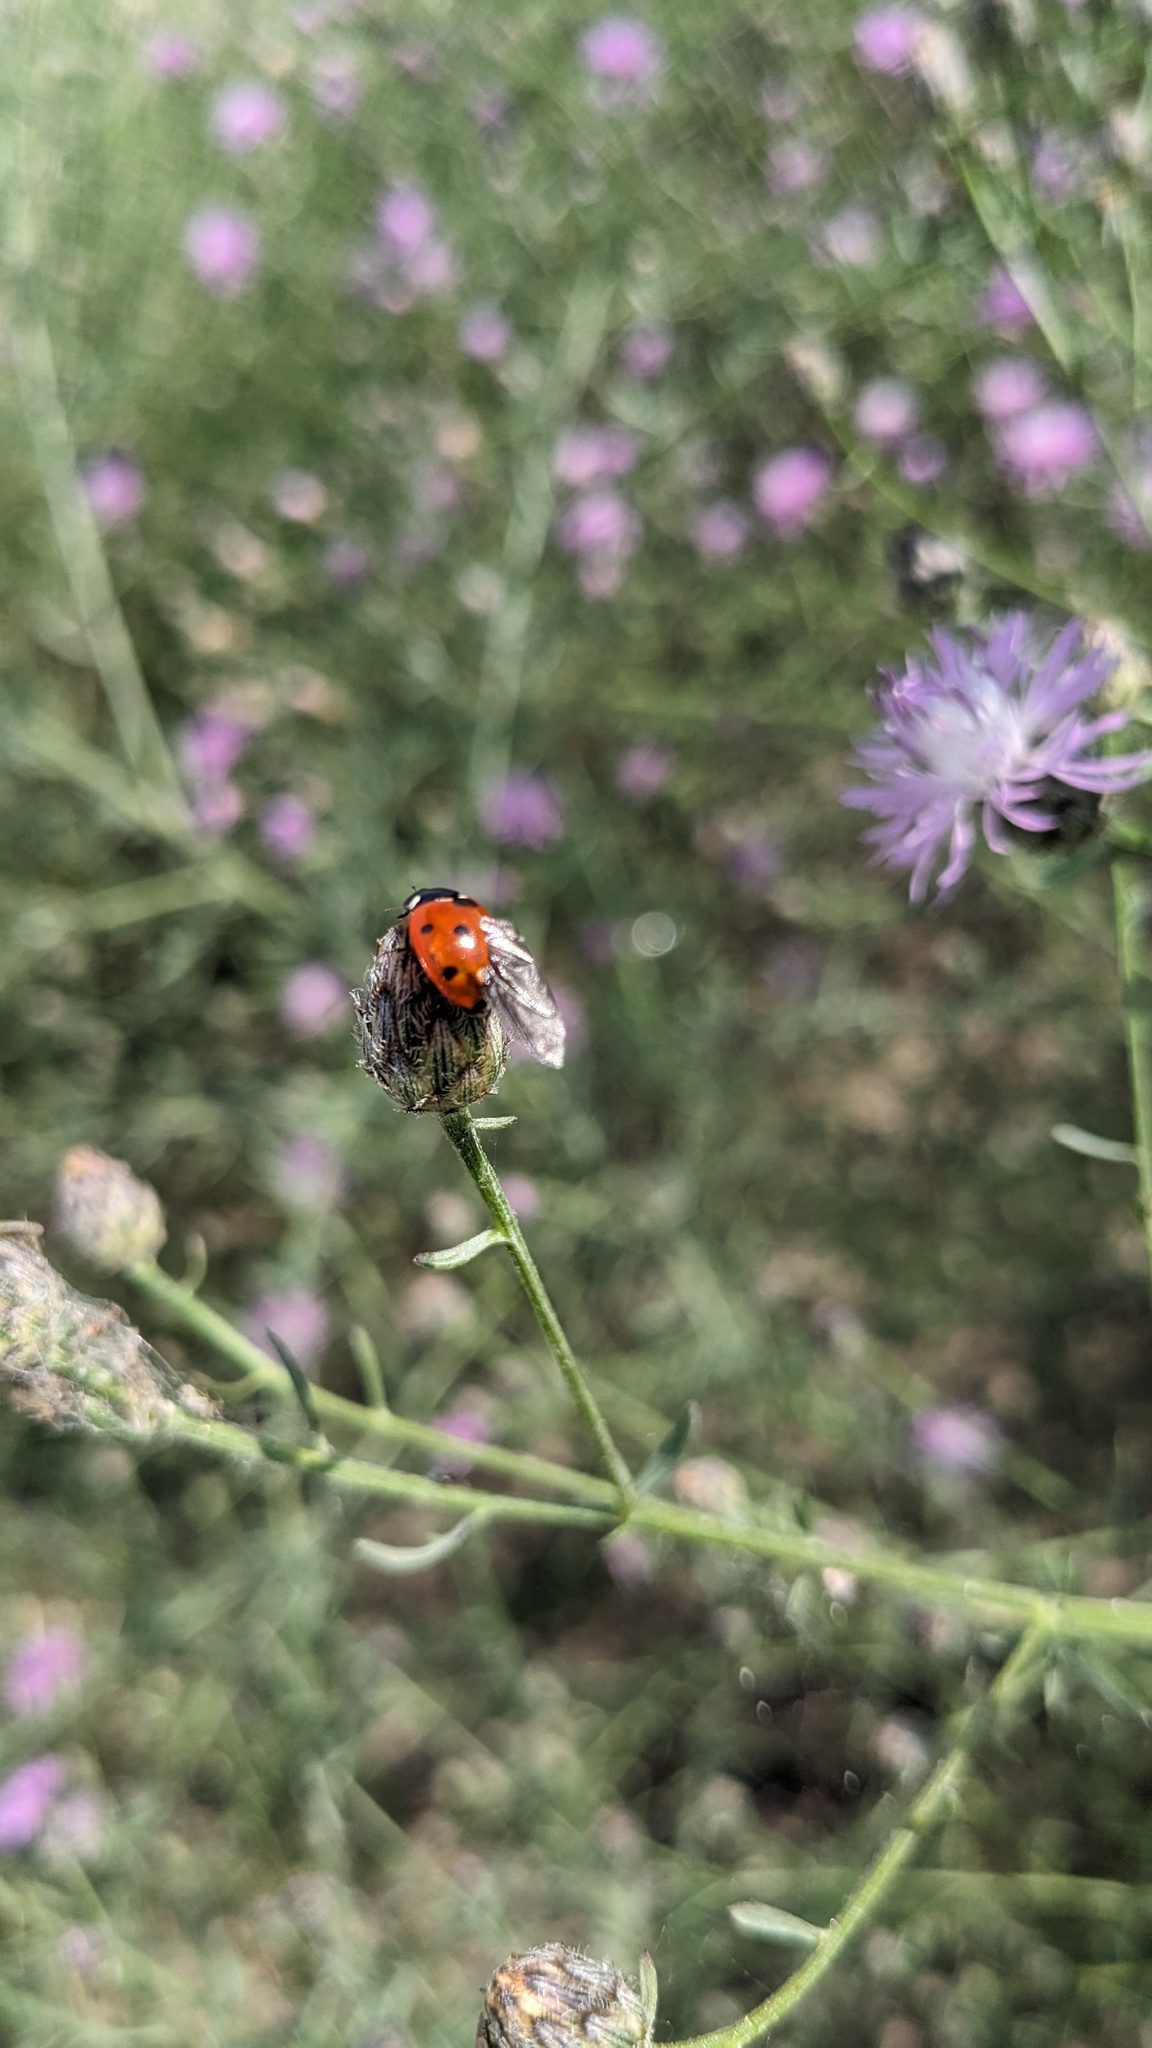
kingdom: Animalia
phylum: Arthropoda
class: Insecta
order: Coleoptera
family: Coccinellidae
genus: Coccinella
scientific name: Coccinella septempunctata
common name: Sevenspotted lady beetle
